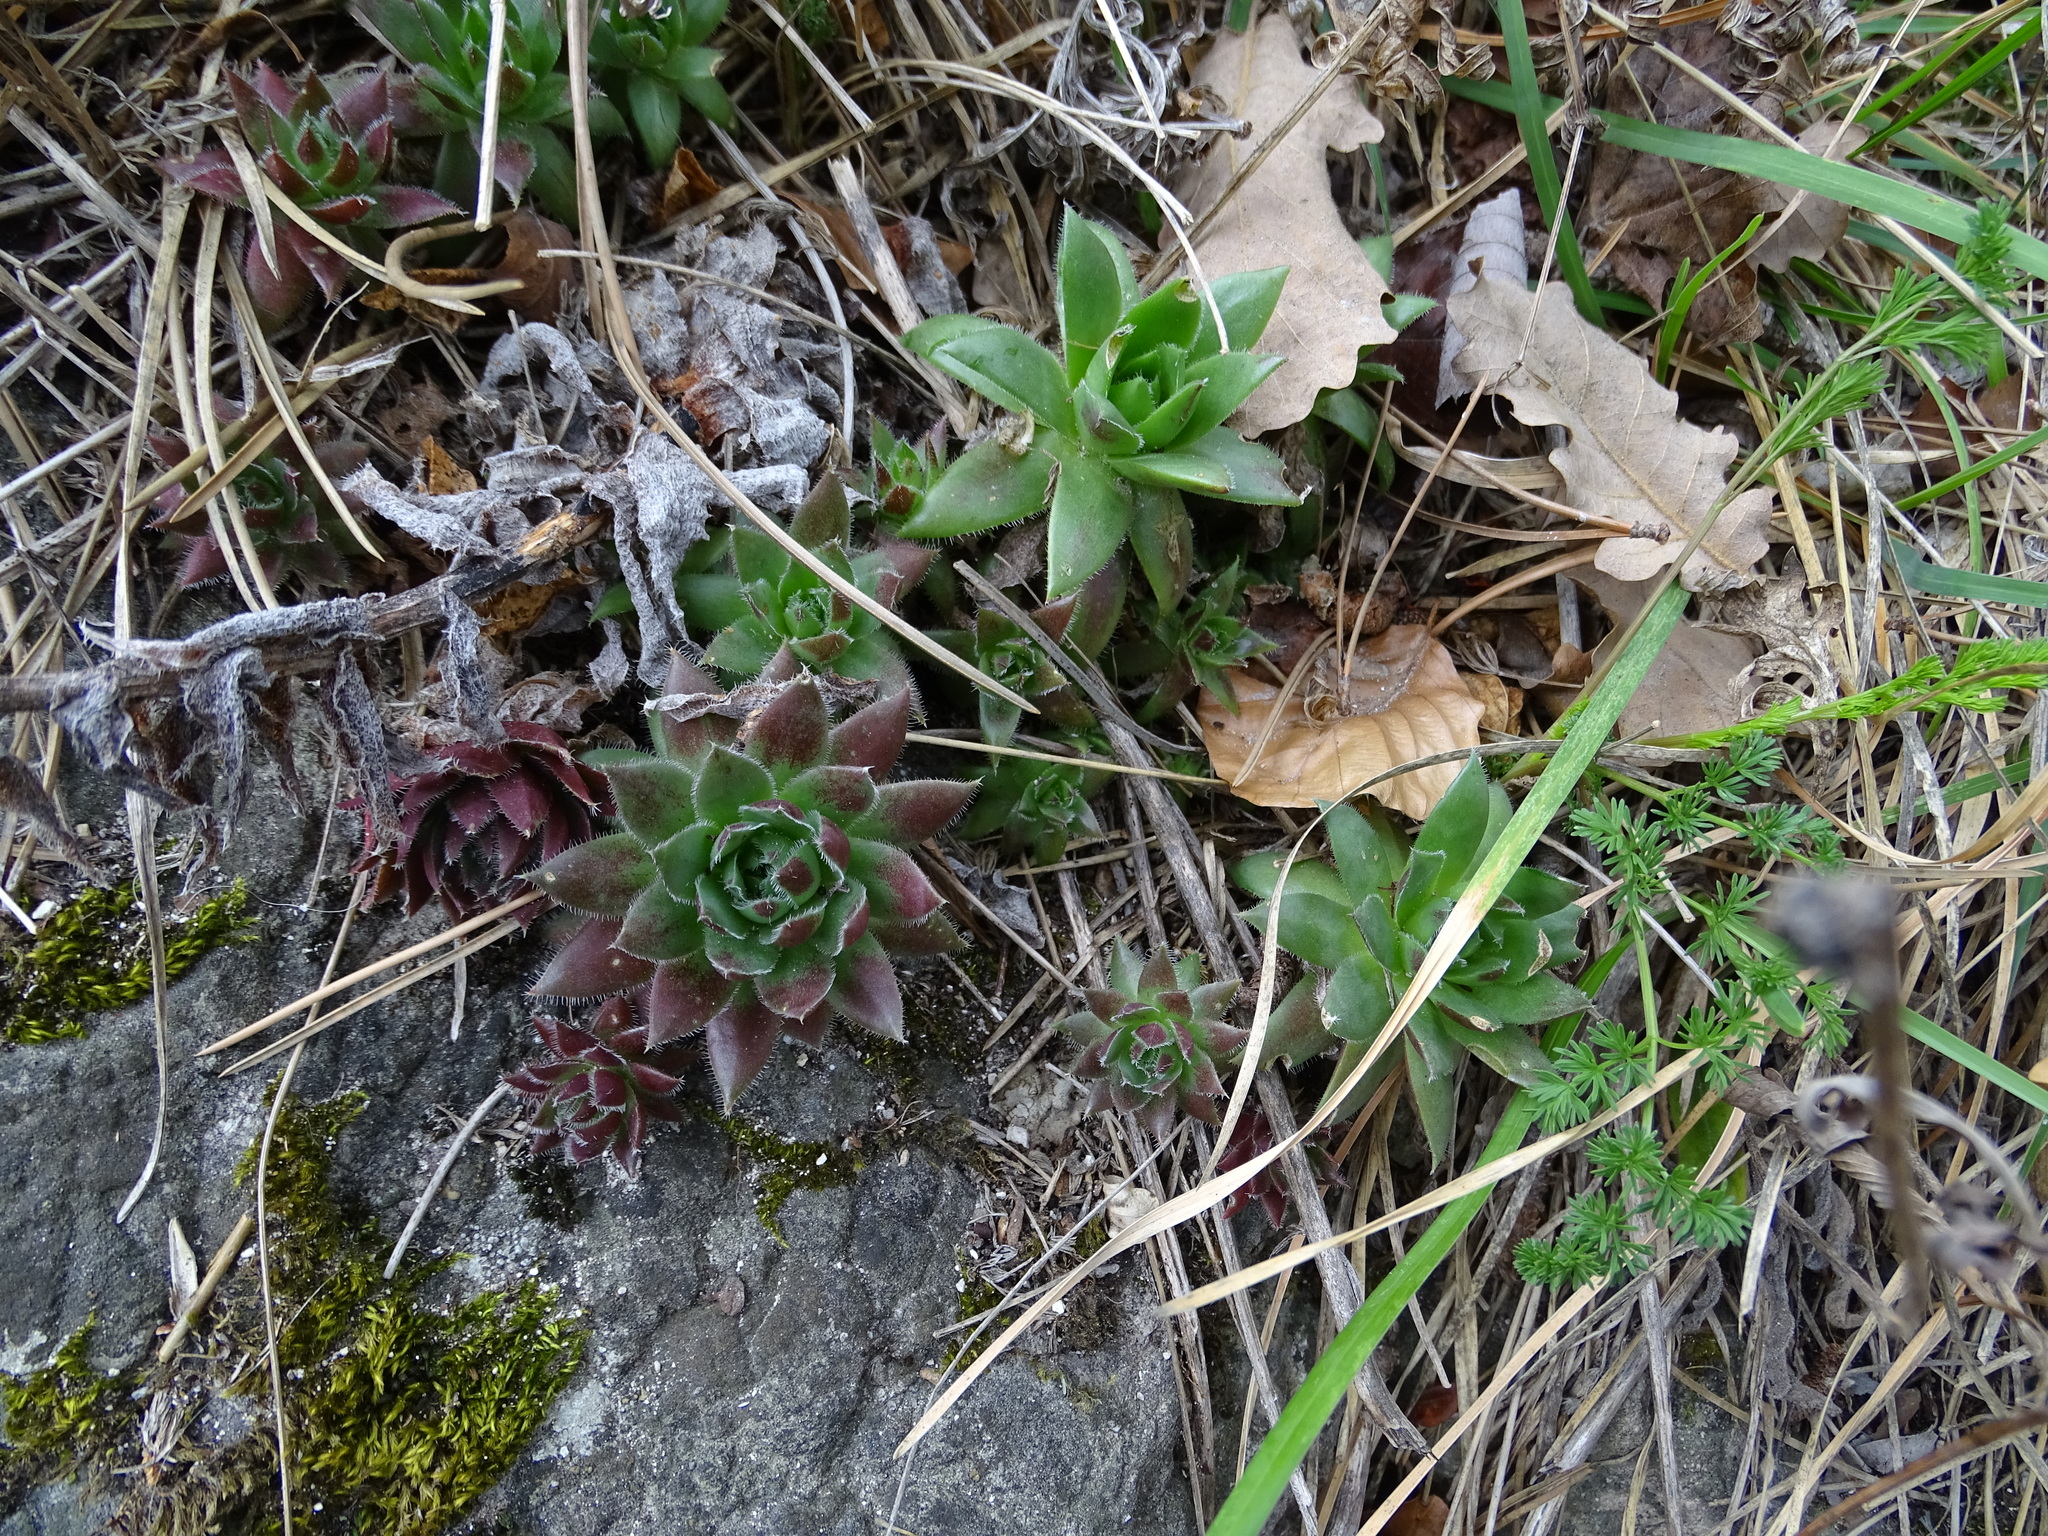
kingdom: Plantae
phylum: Tracheophyta
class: Magnoliopsida
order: Saxifragales
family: Crassulaceae
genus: Sempervivum
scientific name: Sempervivum globiferum
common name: Rolling hen-and-chicks
